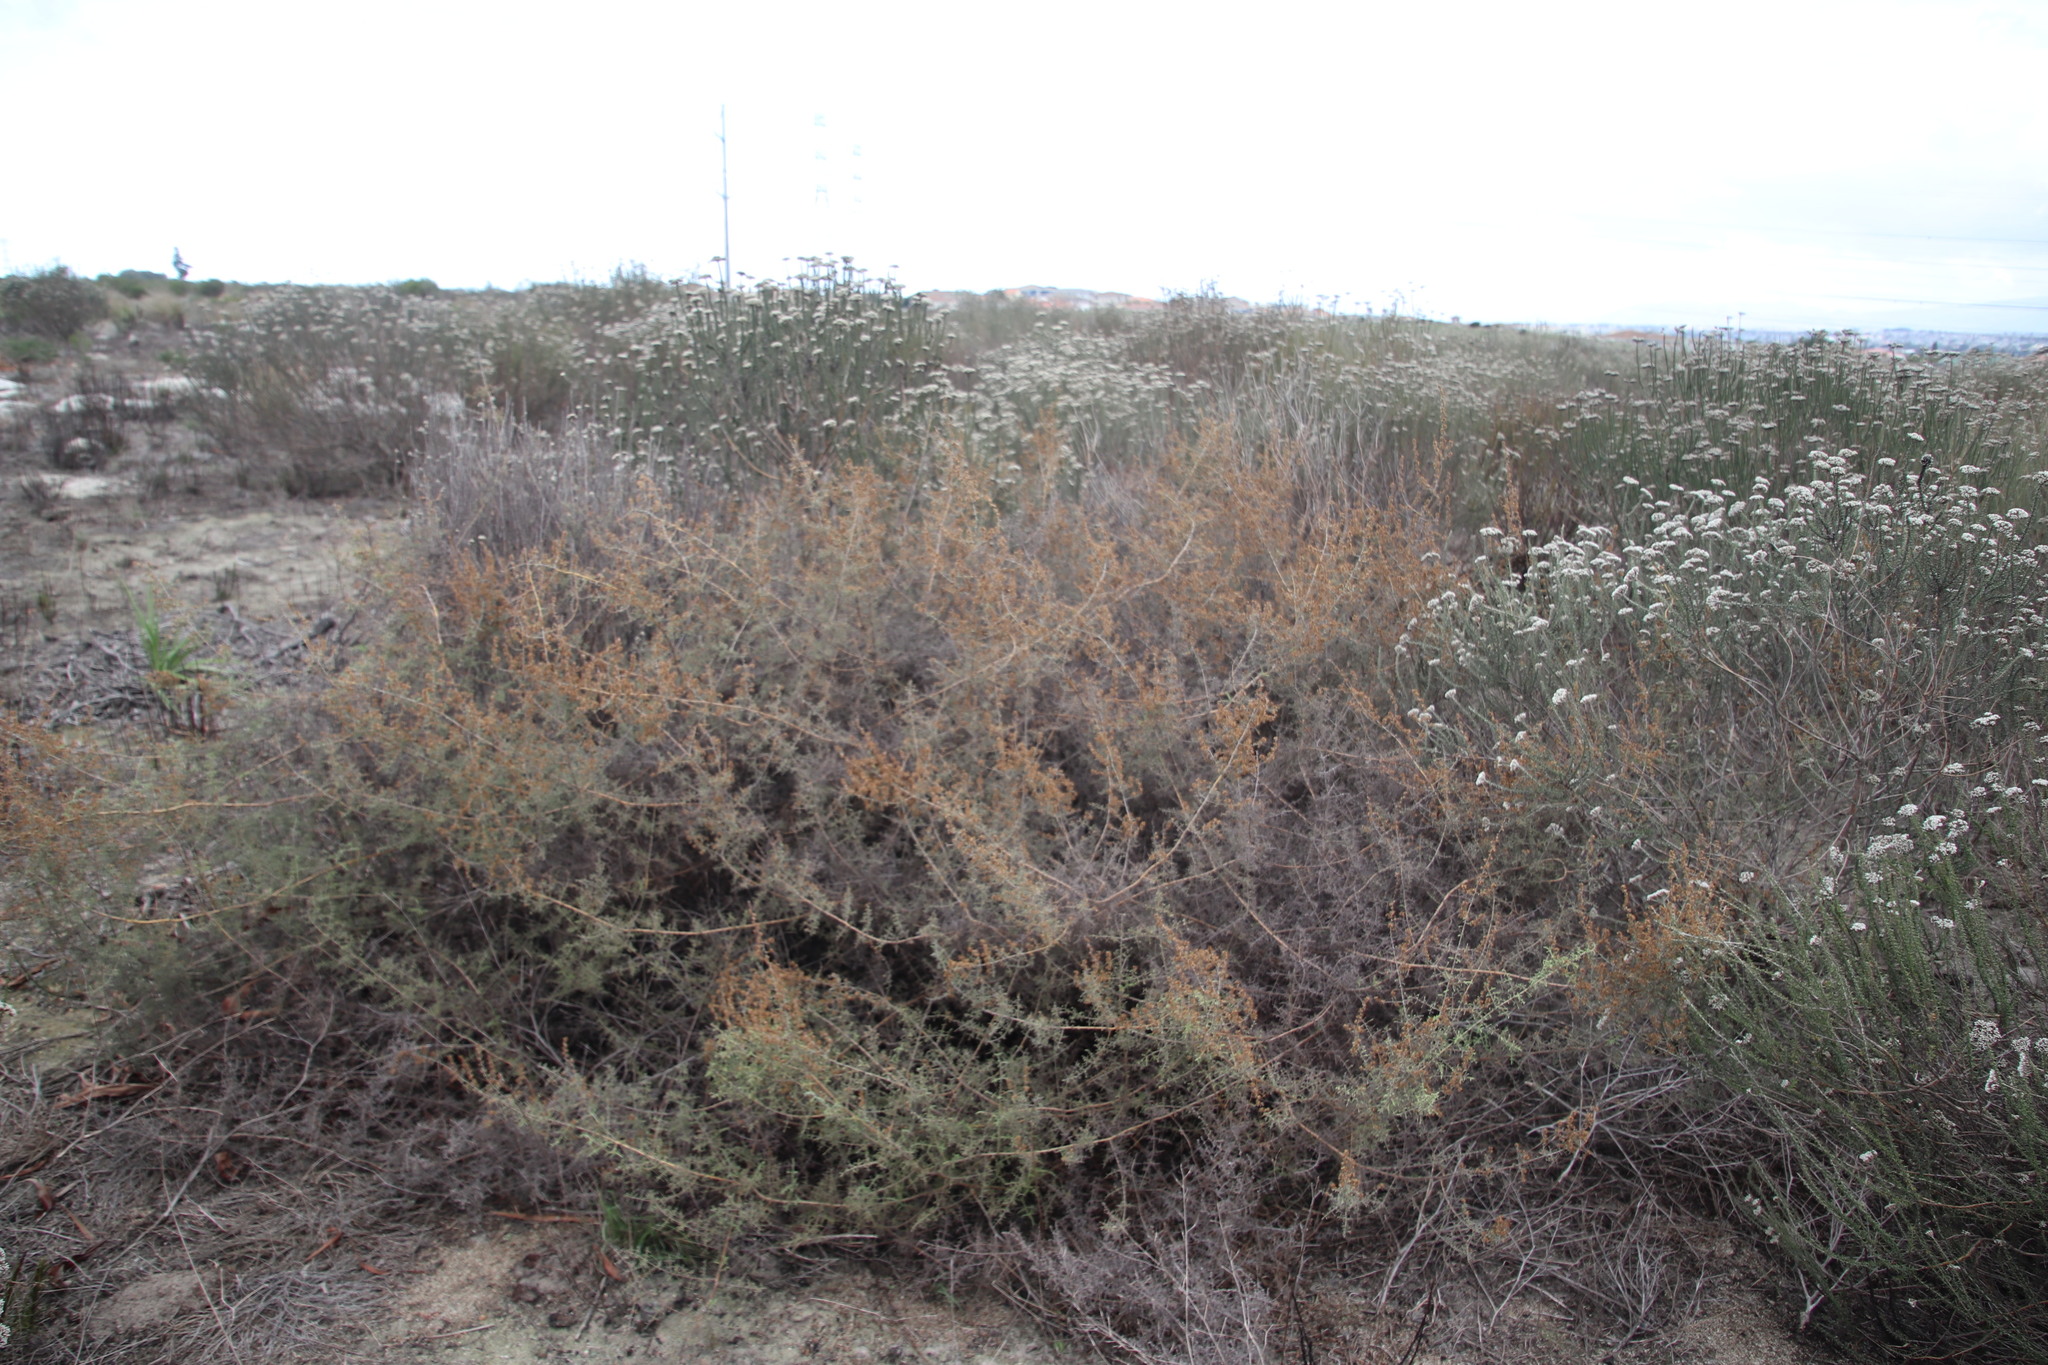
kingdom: Plantae
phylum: Tracheophyta
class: Magnoliopsida
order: Asterales
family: Asteraceae
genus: Seriphium
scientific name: Seriphium plumosum
